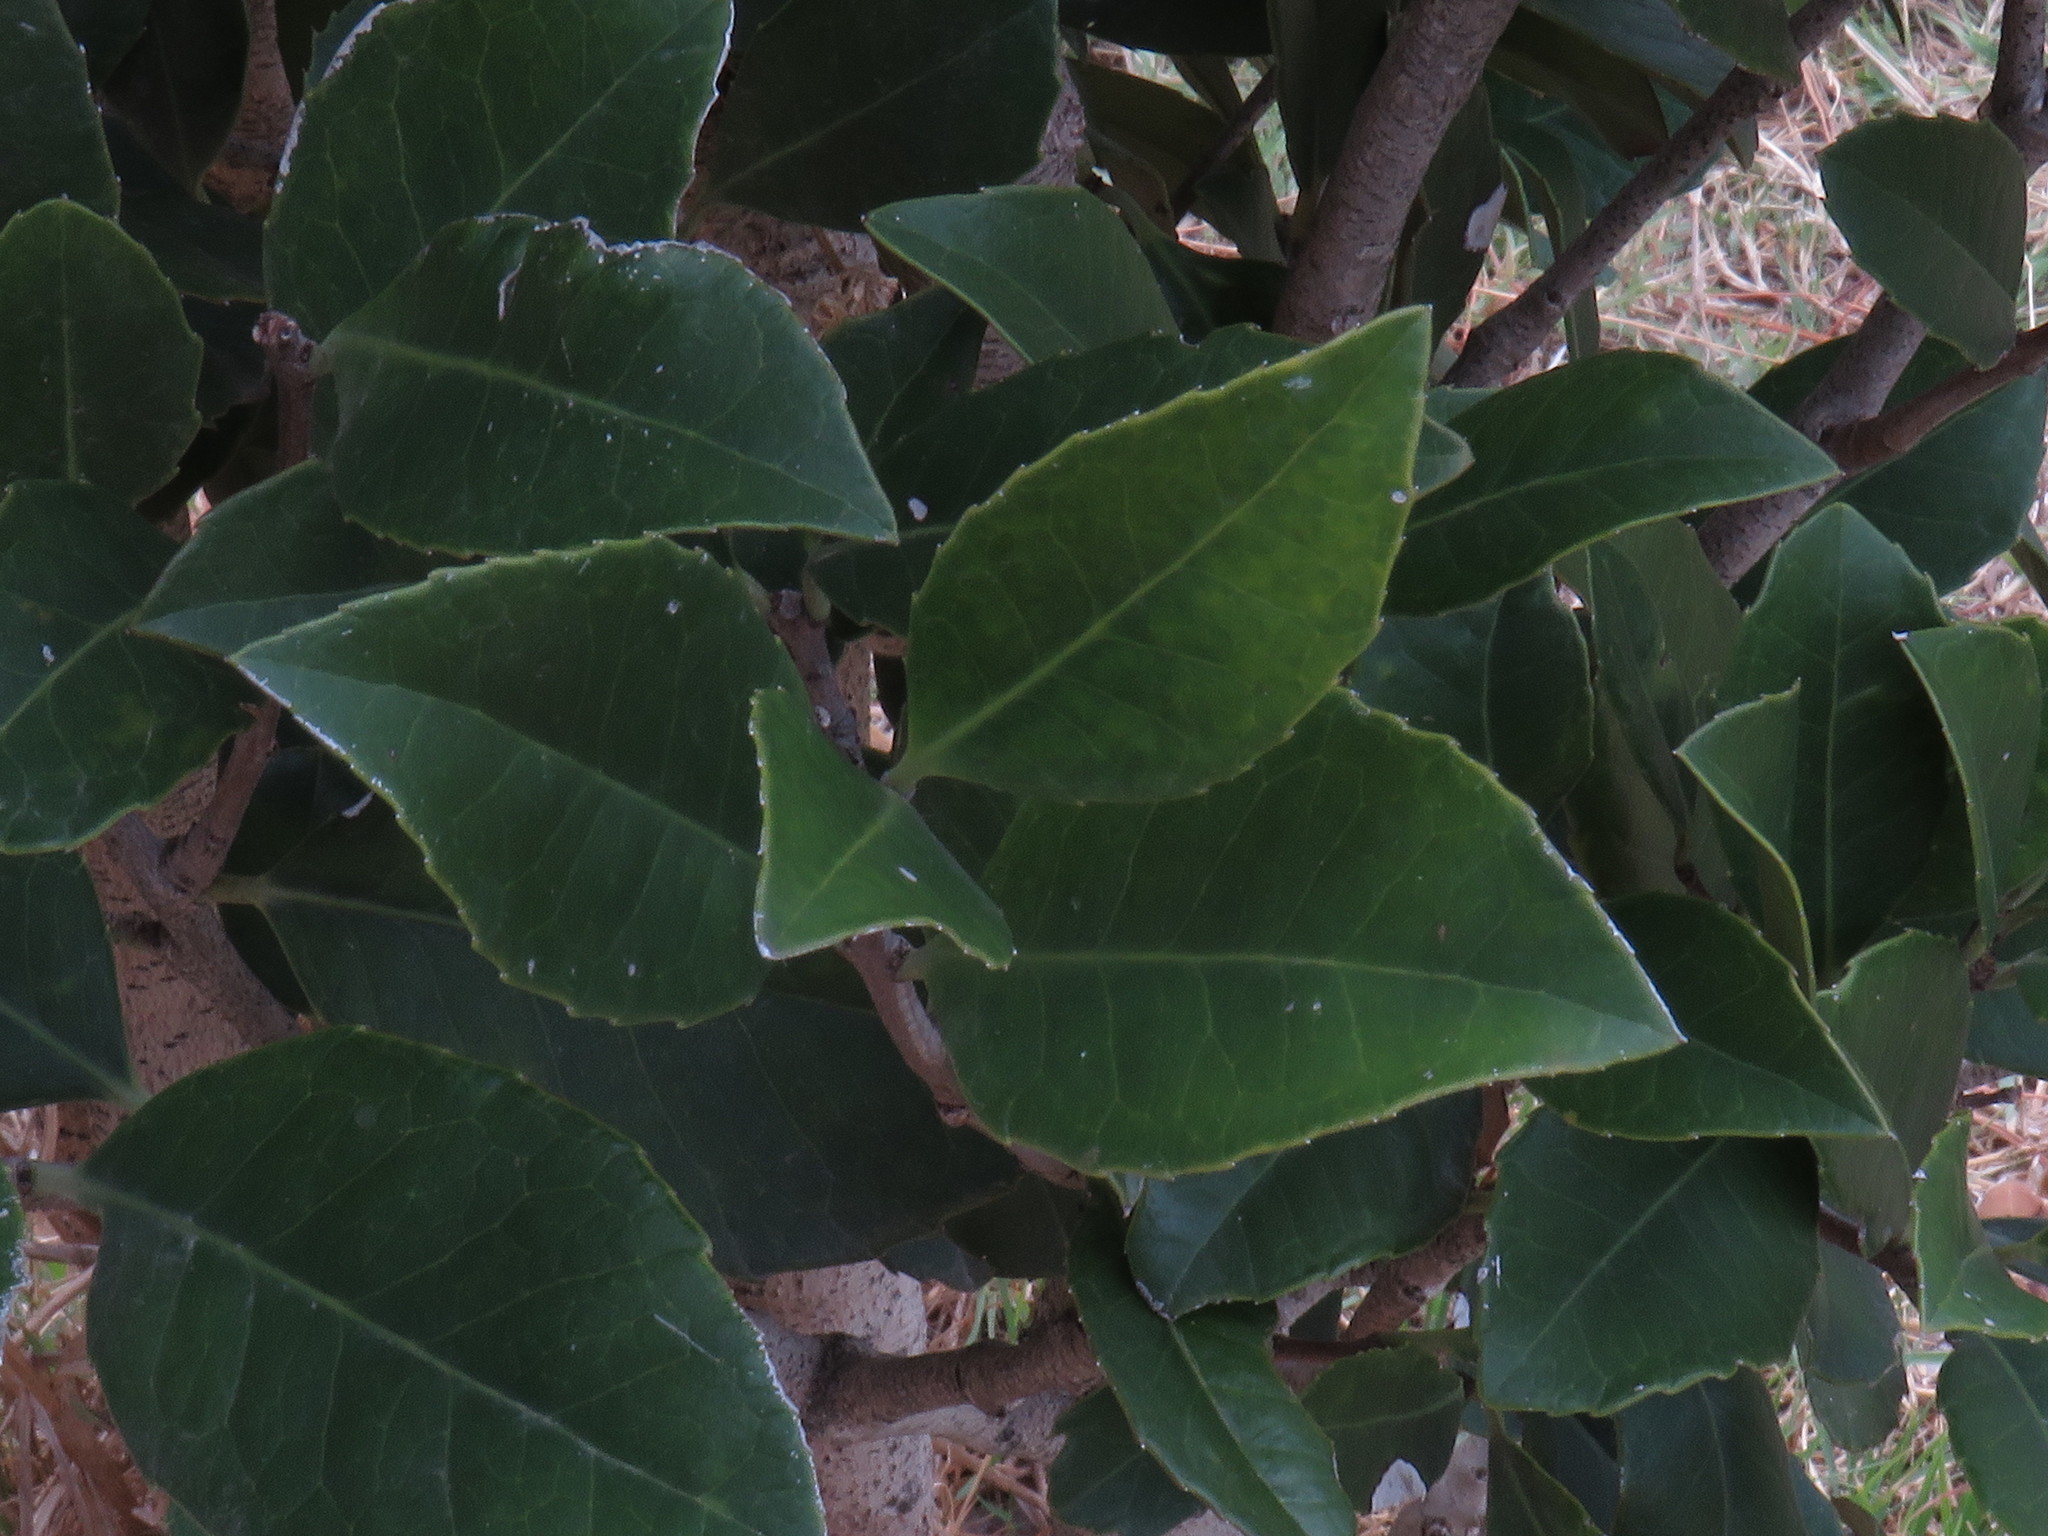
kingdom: Plantae
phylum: Tracheophyta
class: Magnoliopsida
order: Celastrales
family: Celastraceae
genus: Elaeodendron
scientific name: Elaeodendron croceum
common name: Saffron
